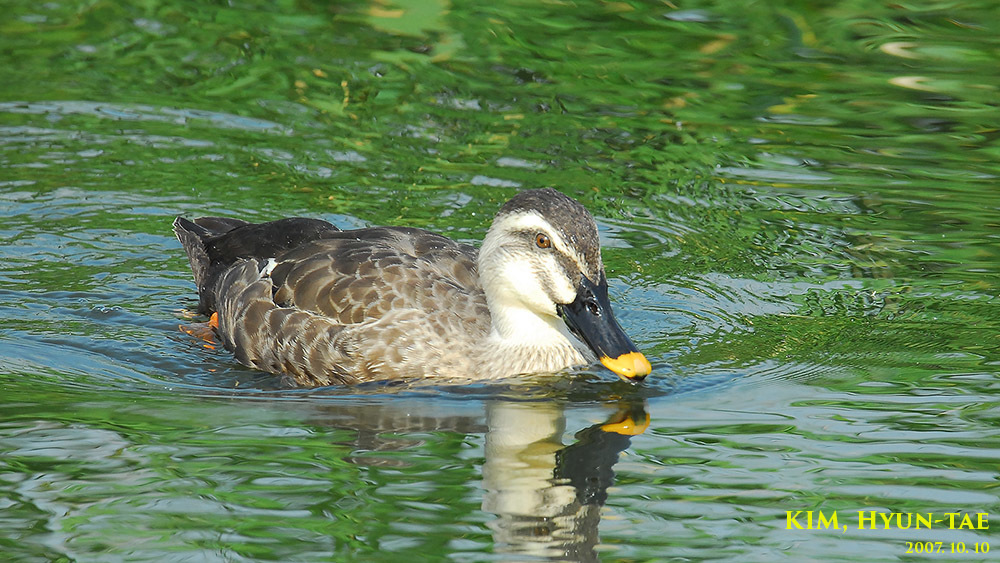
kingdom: Animalia
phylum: Chordata
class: Aves
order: Anseriformes
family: Anatidae
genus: Anas
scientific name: Anas zonorhyncha
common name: Eastern spot-billed duck
